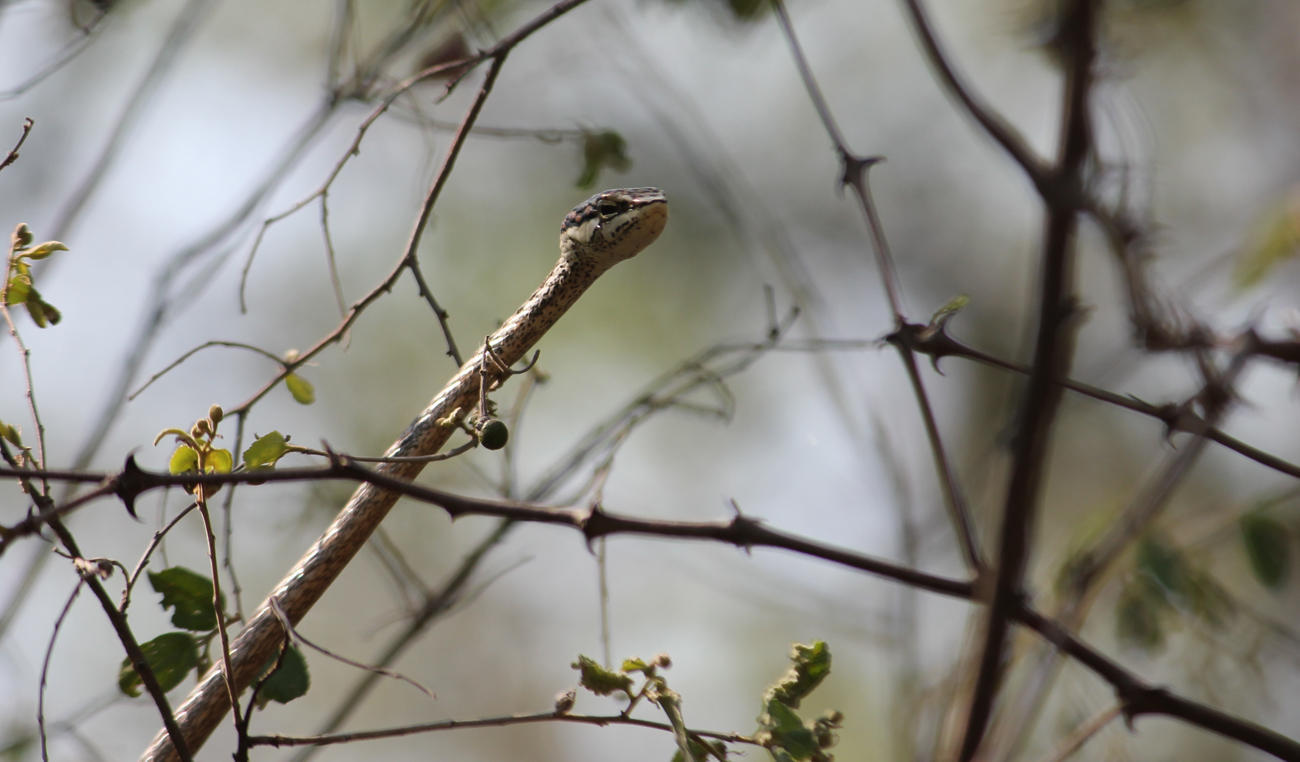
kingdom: Animalia
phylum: Chordata
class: Squamata
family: Colubridae
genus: Thelotornis
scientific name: Thelotornis capensis
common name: Savanna vine snake
